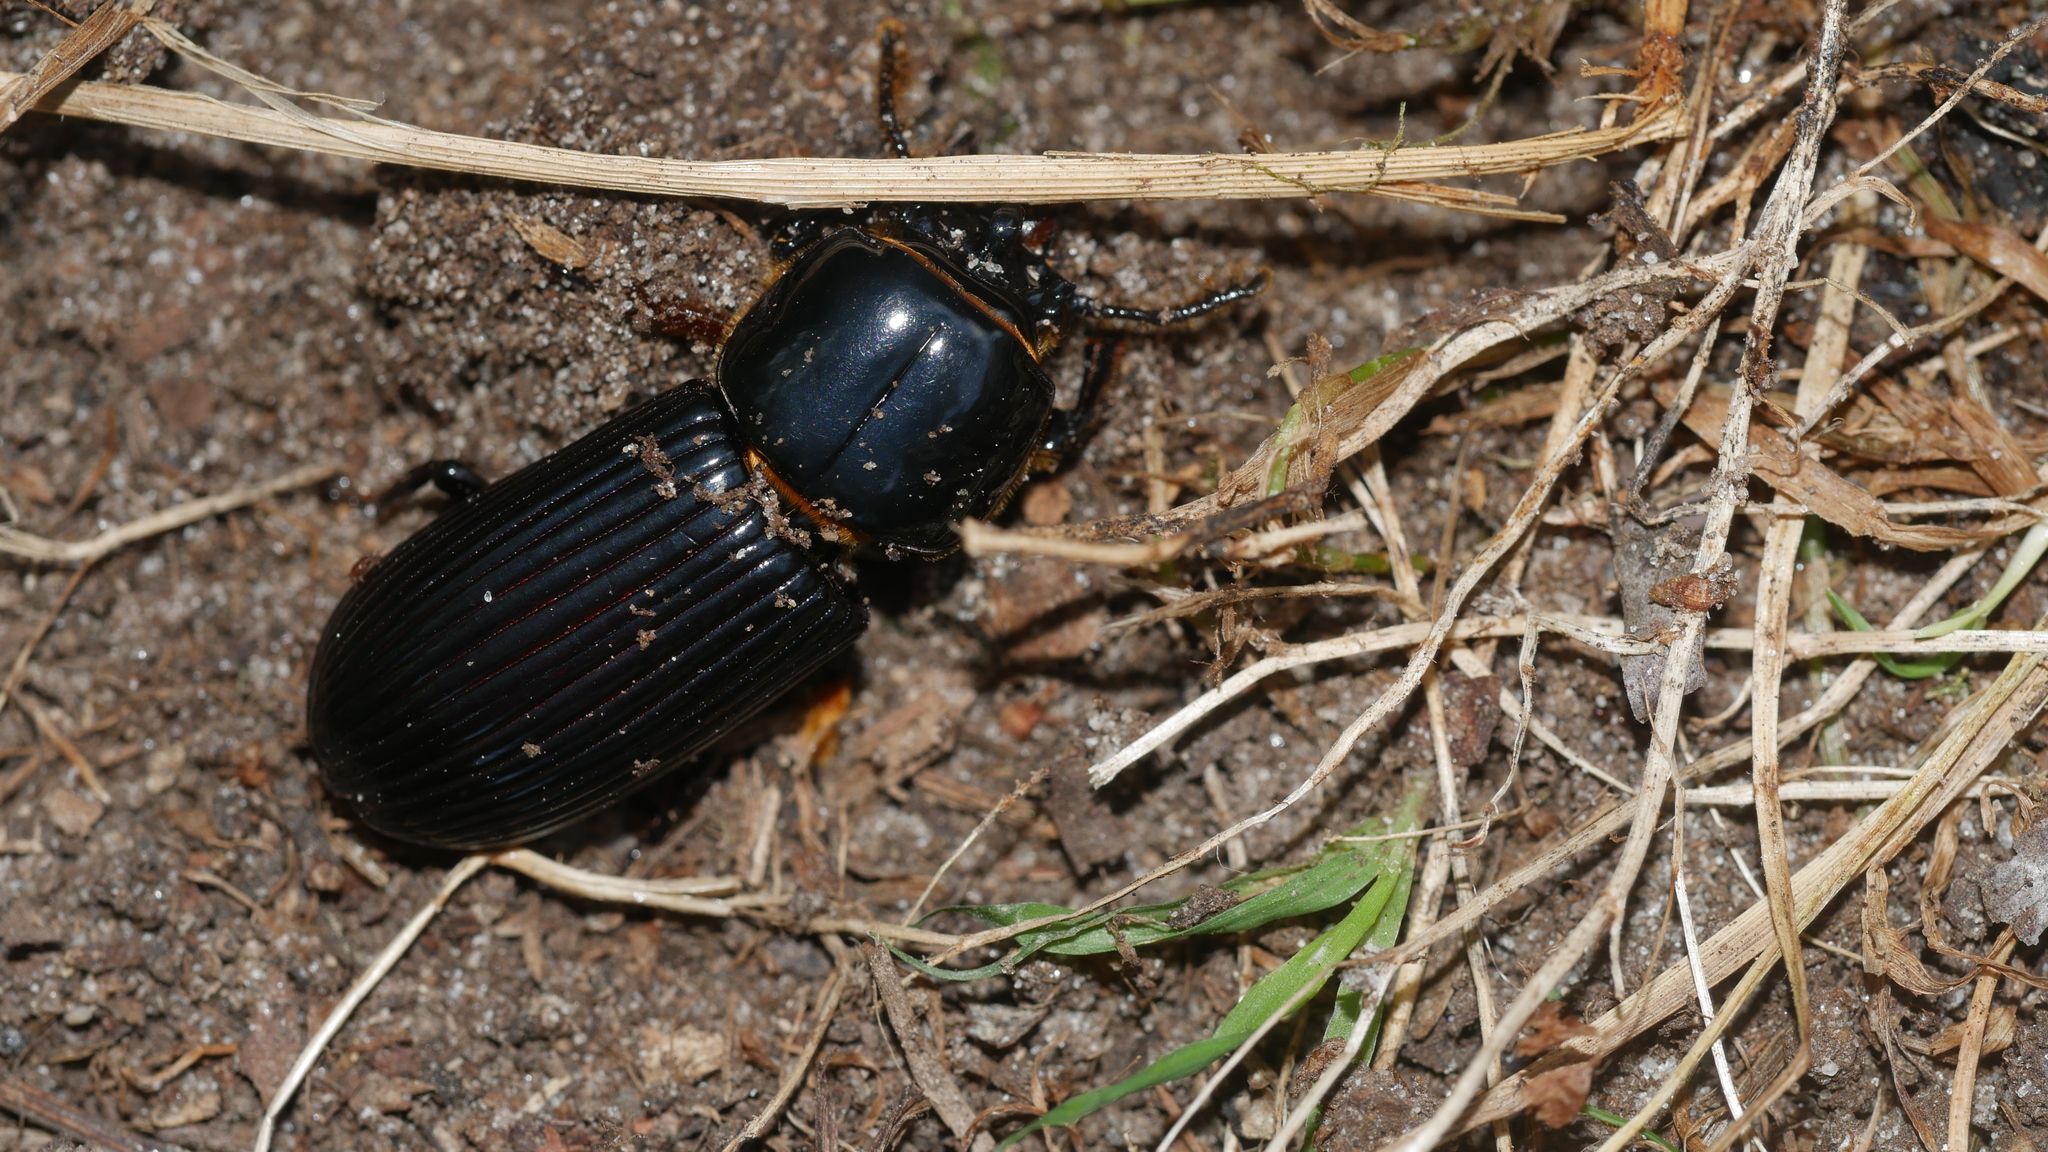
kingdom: Animalia
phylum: Arthropoda
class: Insecta
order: Coleoptera
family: Passalidae
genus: Odontotaenius
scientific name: Odontotaenius disjunctus
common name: Patent leather beetle
